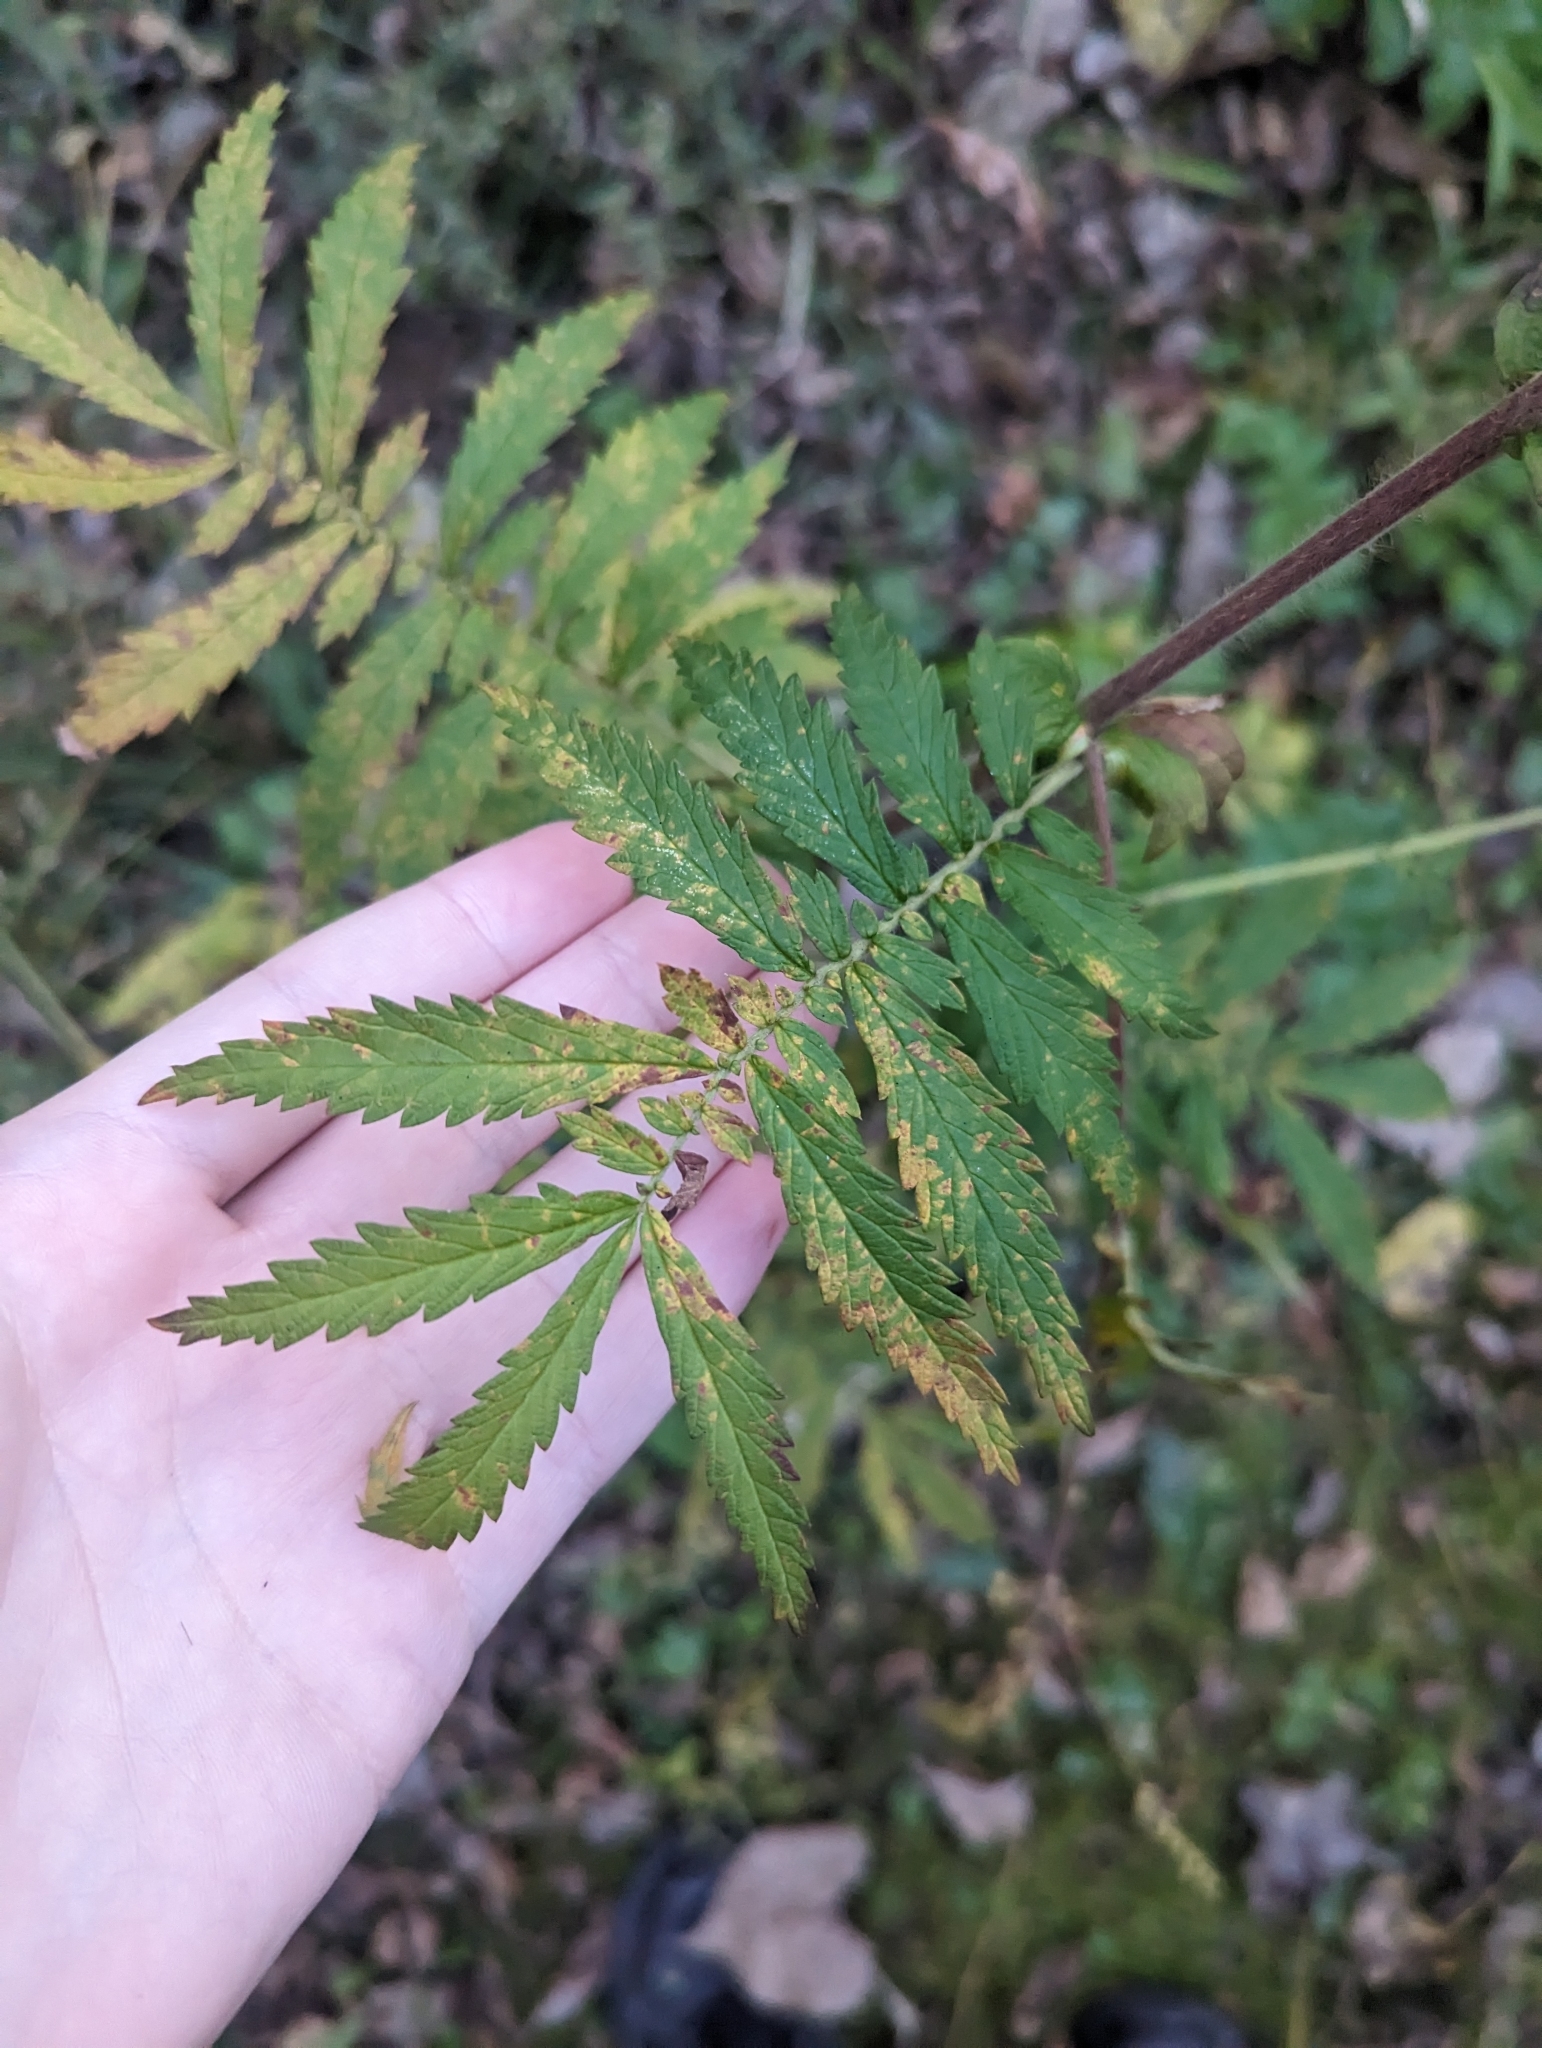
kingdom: Plantae
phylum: Tracheophyta
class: Magnoliopsida
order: Rosales
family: Rosaceae
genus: Agrimonia
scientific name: Agrimonia parviflora
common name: Harvest-lice
